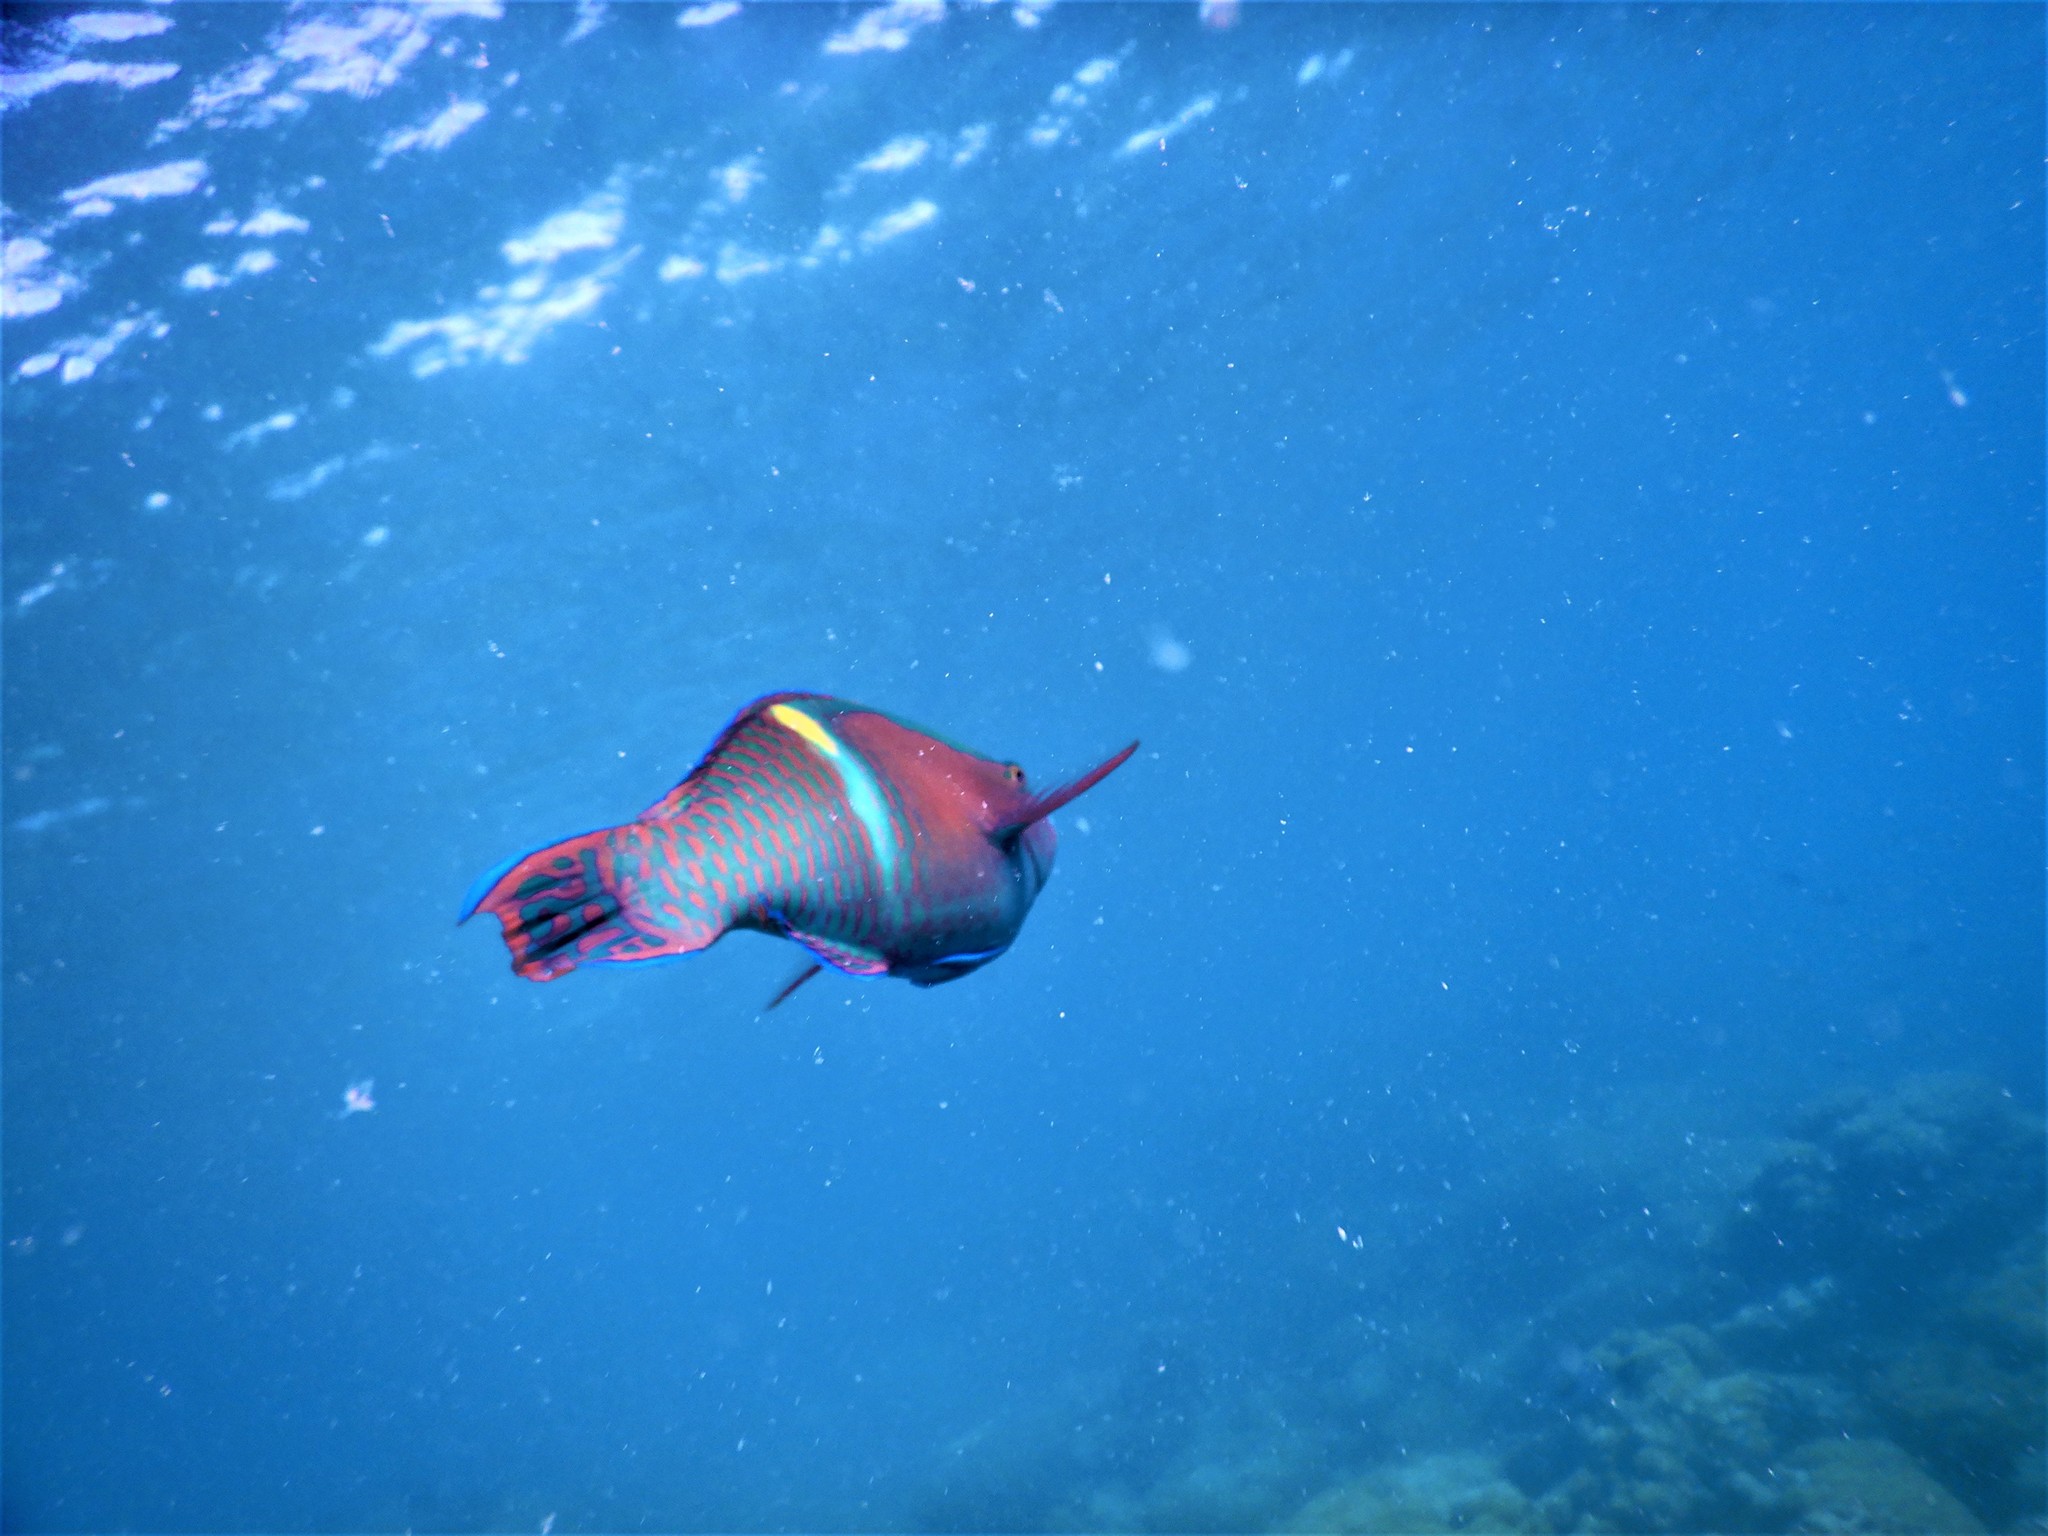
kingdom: Animalia
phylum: Chordata
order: Perciformes
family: Scaridae
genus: Scarus
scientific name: Scarus schlegeli
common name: Schlegel's parrotfish
